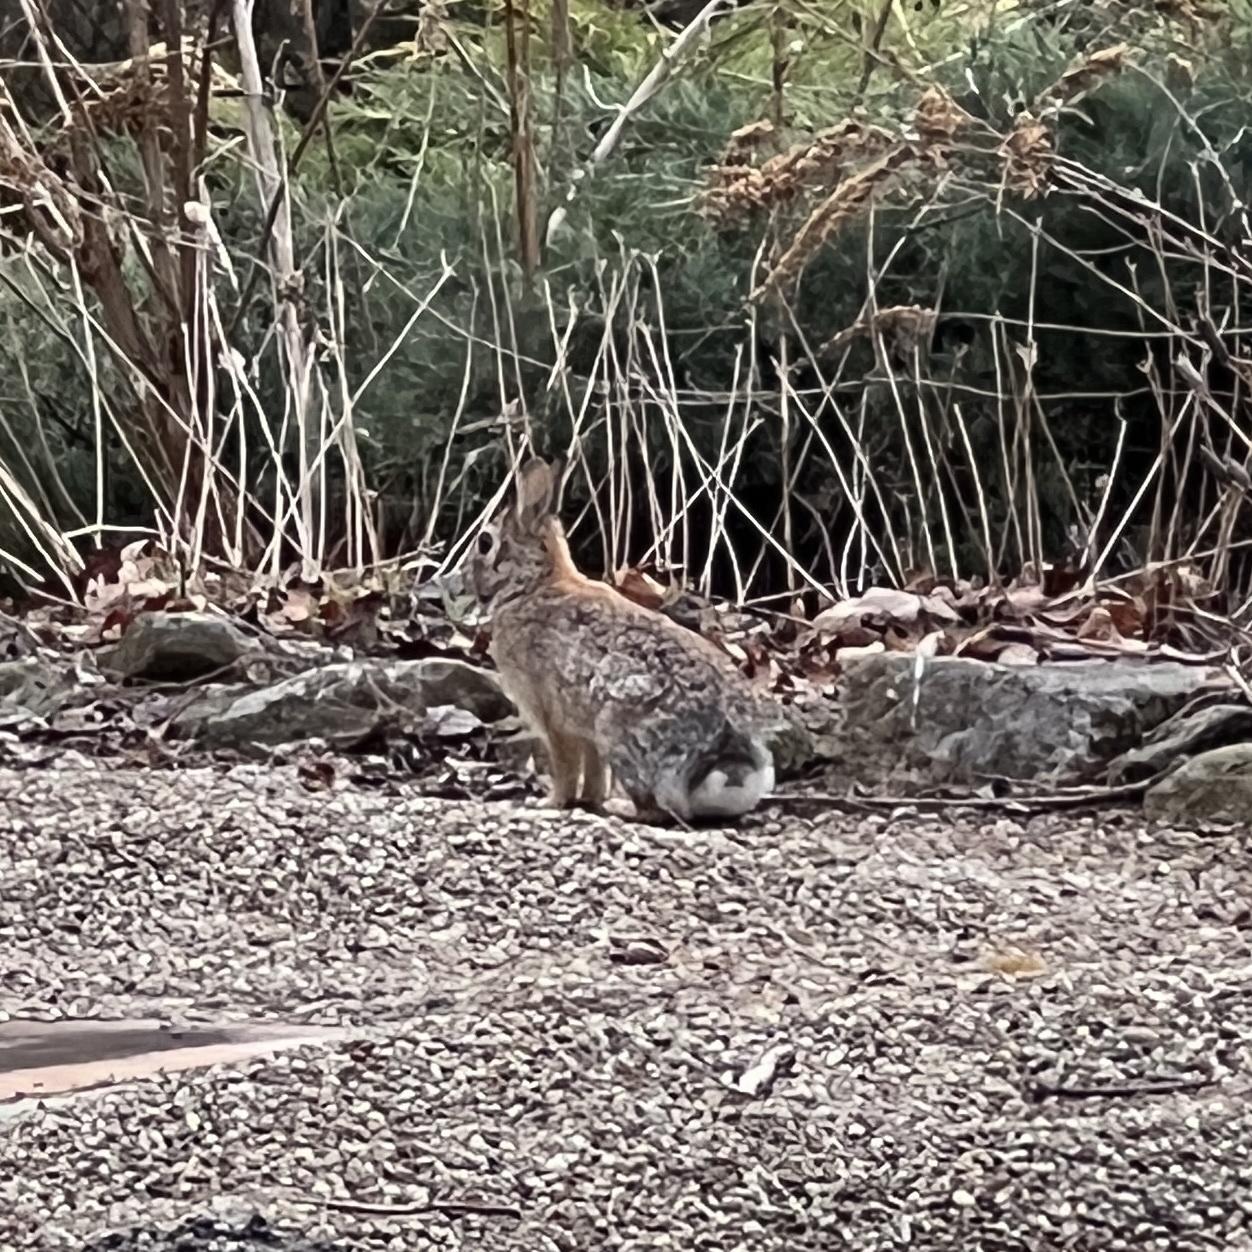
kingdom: Animalia
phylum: Chordata
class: Mammalia
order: Lagomorpha
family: Leporidae
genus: Sylvilagus
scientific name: Sylvilagus floridanus
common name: Eastern cottontail
